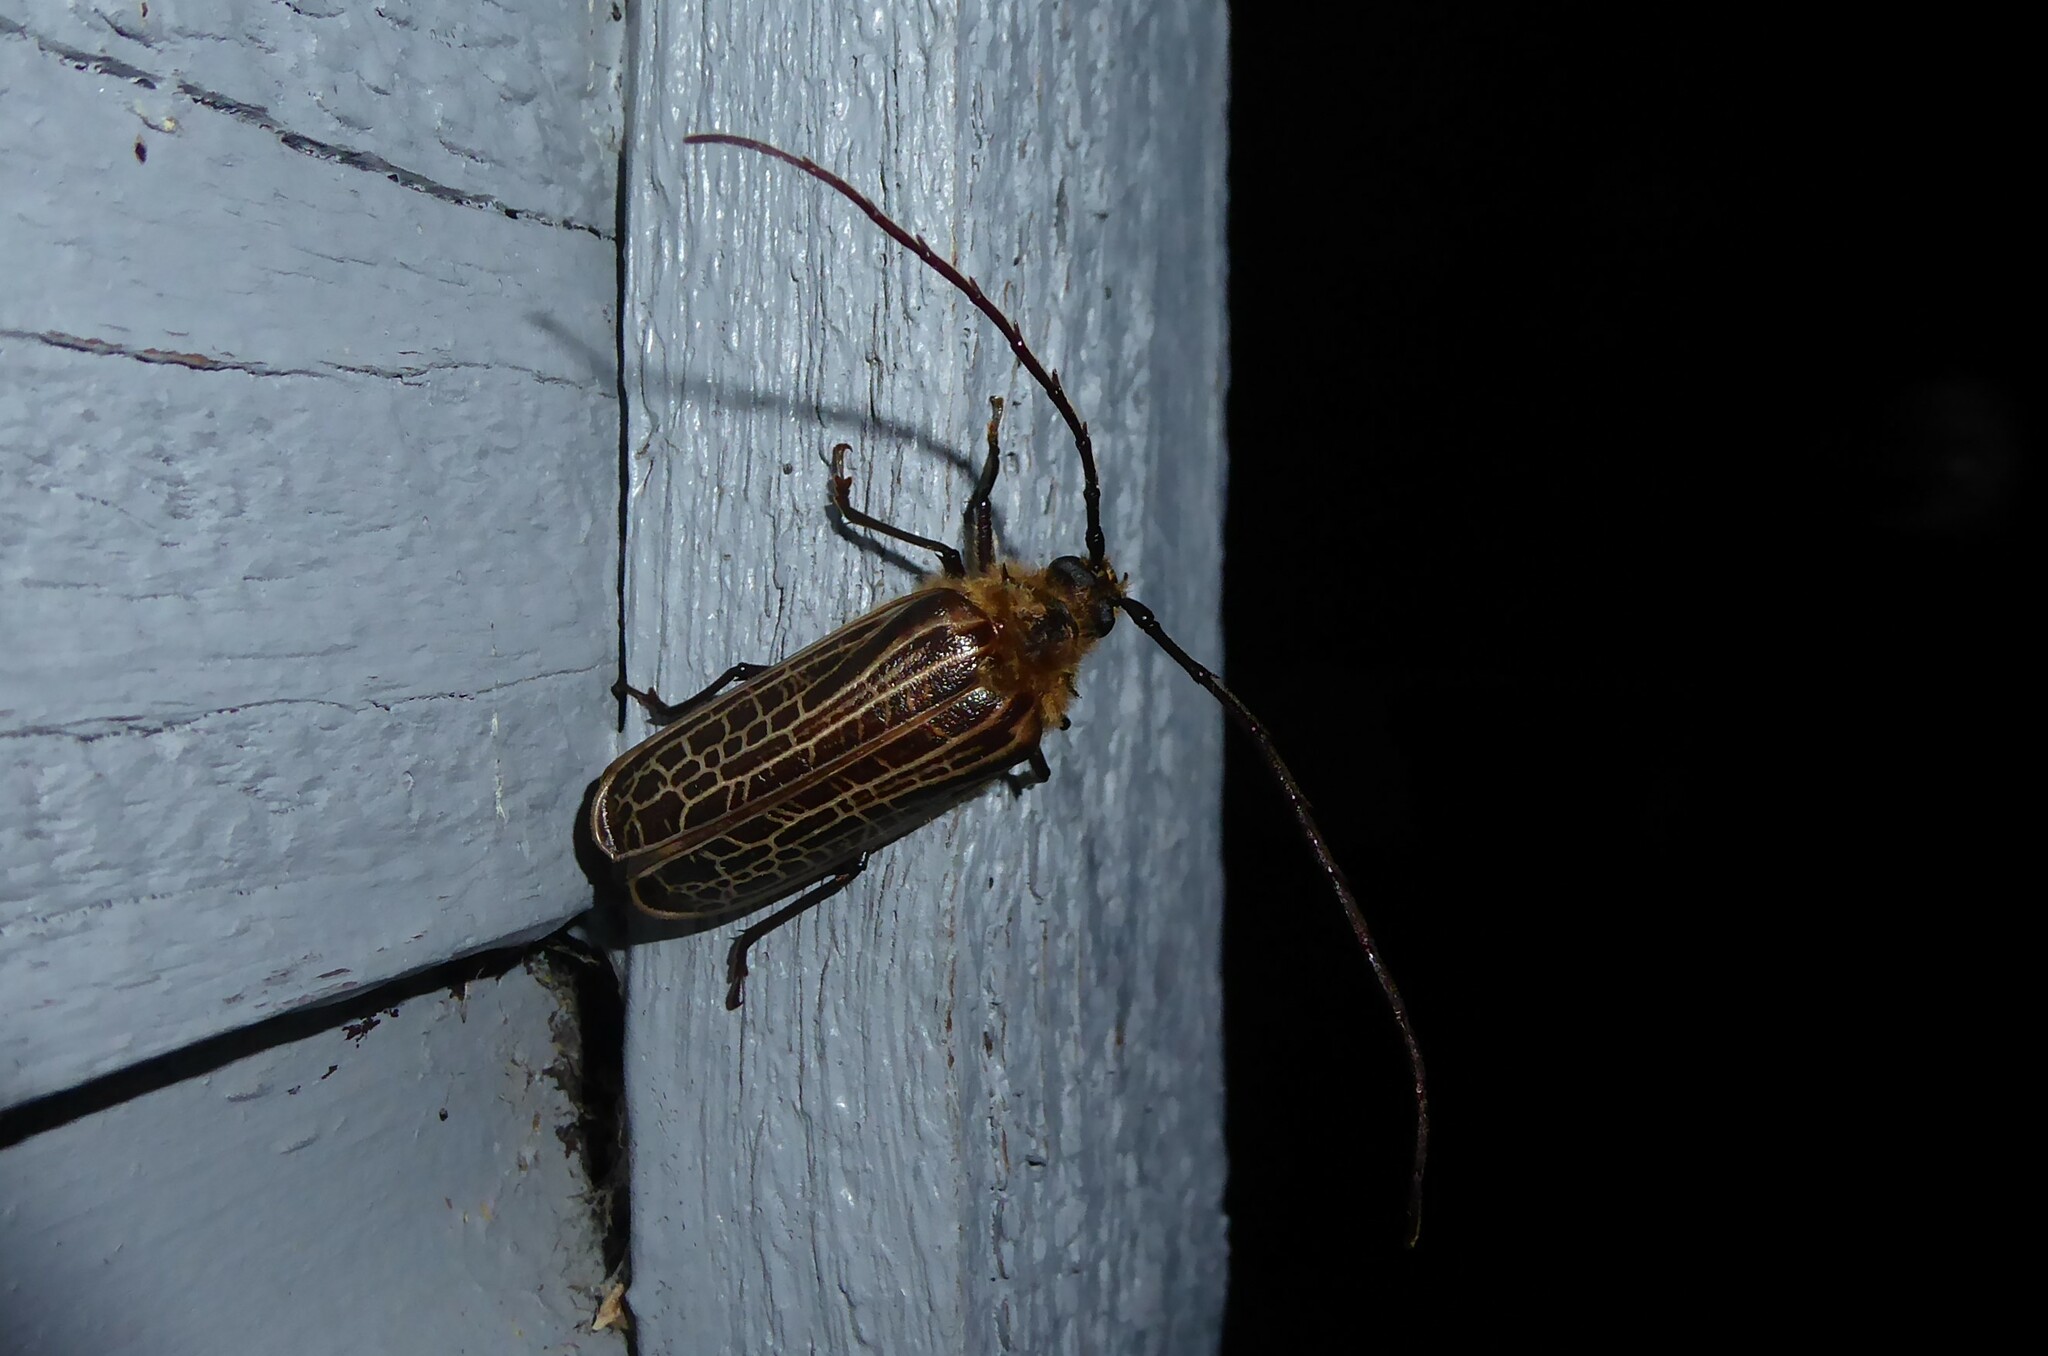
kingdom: Animalia
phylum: Arthropoda
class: Insecta
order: Coleoptera
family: Cerambycidae
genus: Prionoplus
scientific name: Prionoplus reticularis
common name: Huhu beetle
